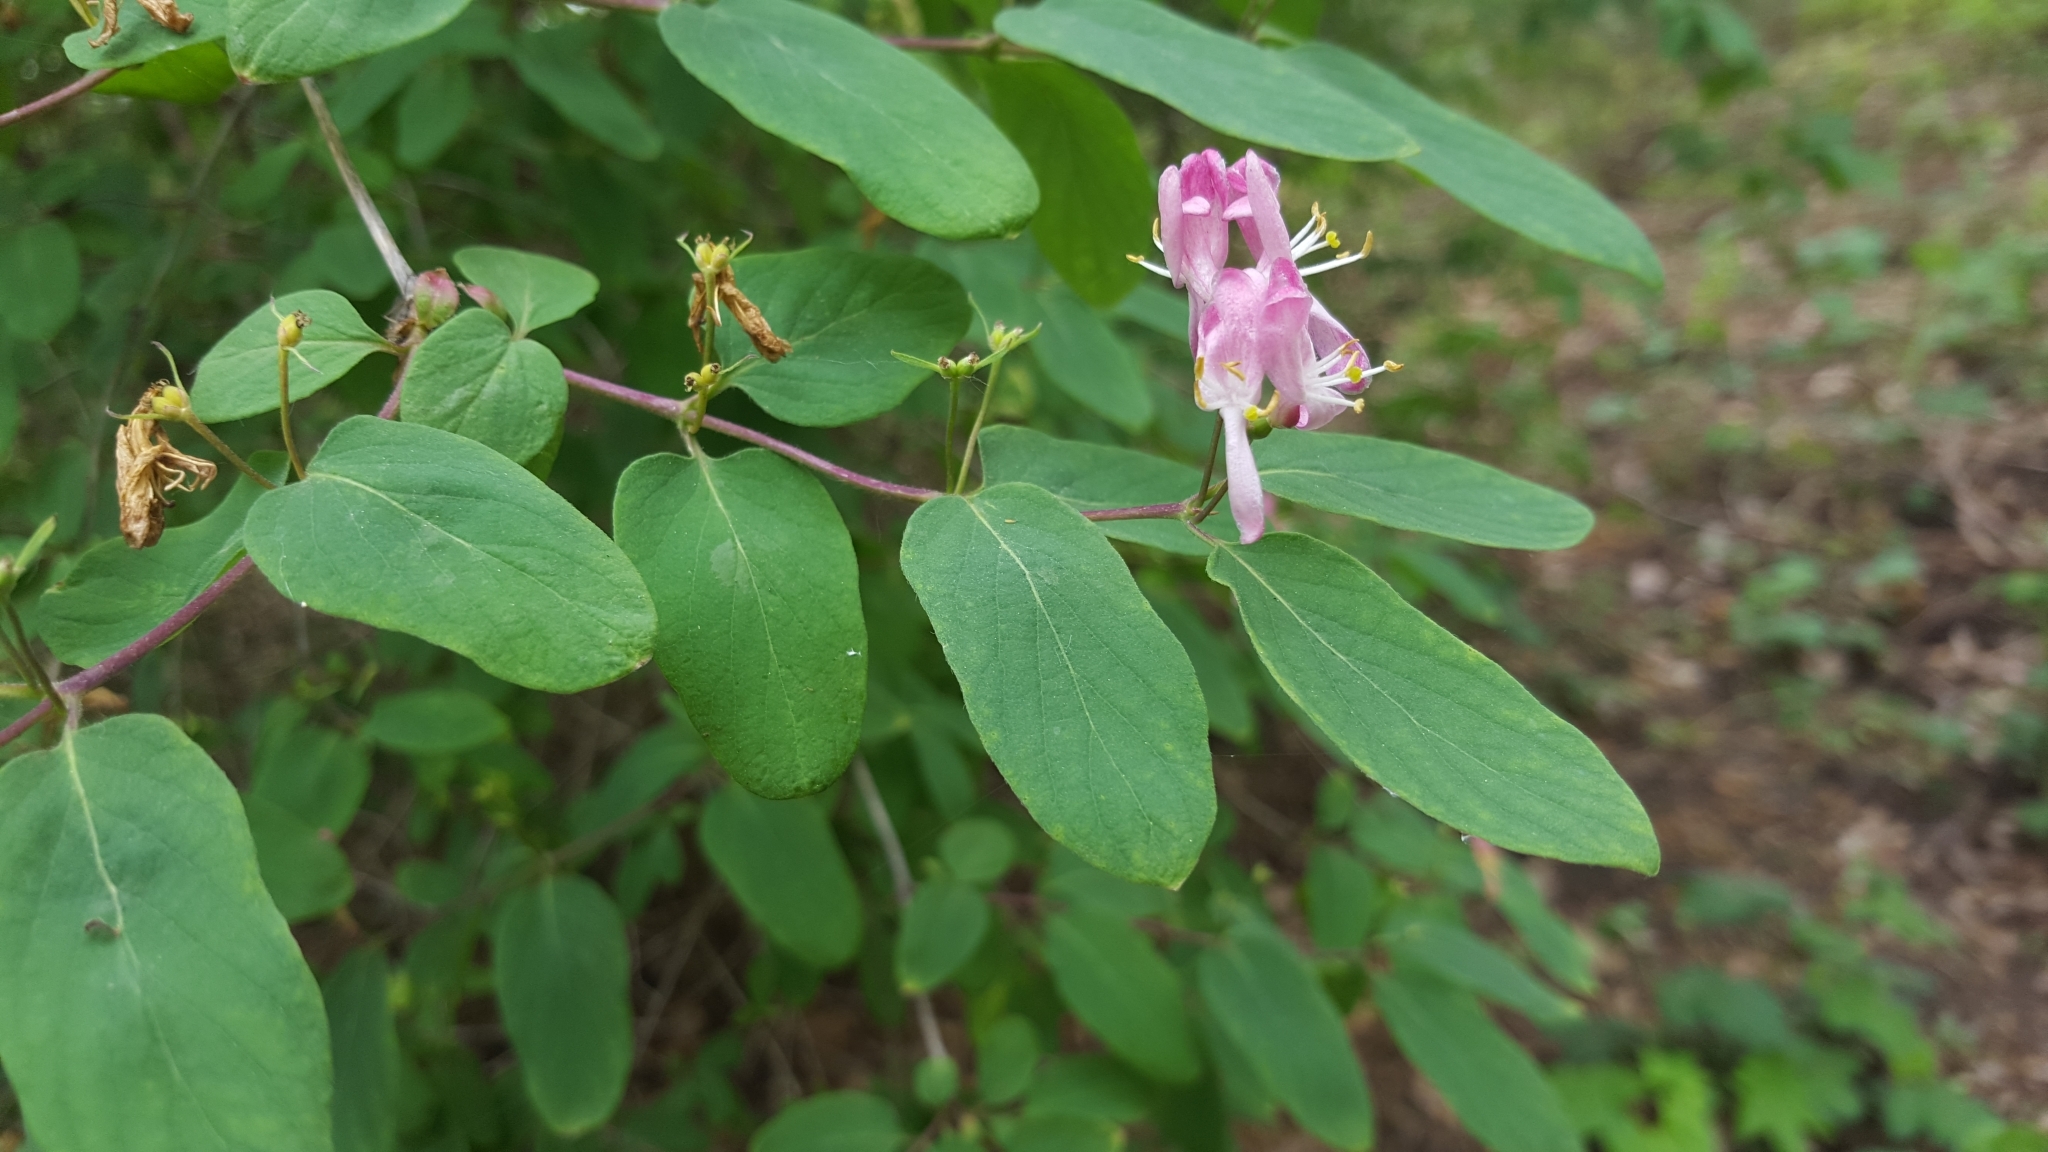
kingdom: Plantae
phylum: Tracheophyta
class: Magnoliopsida
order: Dipsacales
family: Caprifoliaceae
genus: Lonicera
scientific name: Lonicera tatarica
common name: Tatarian honeysuckle
